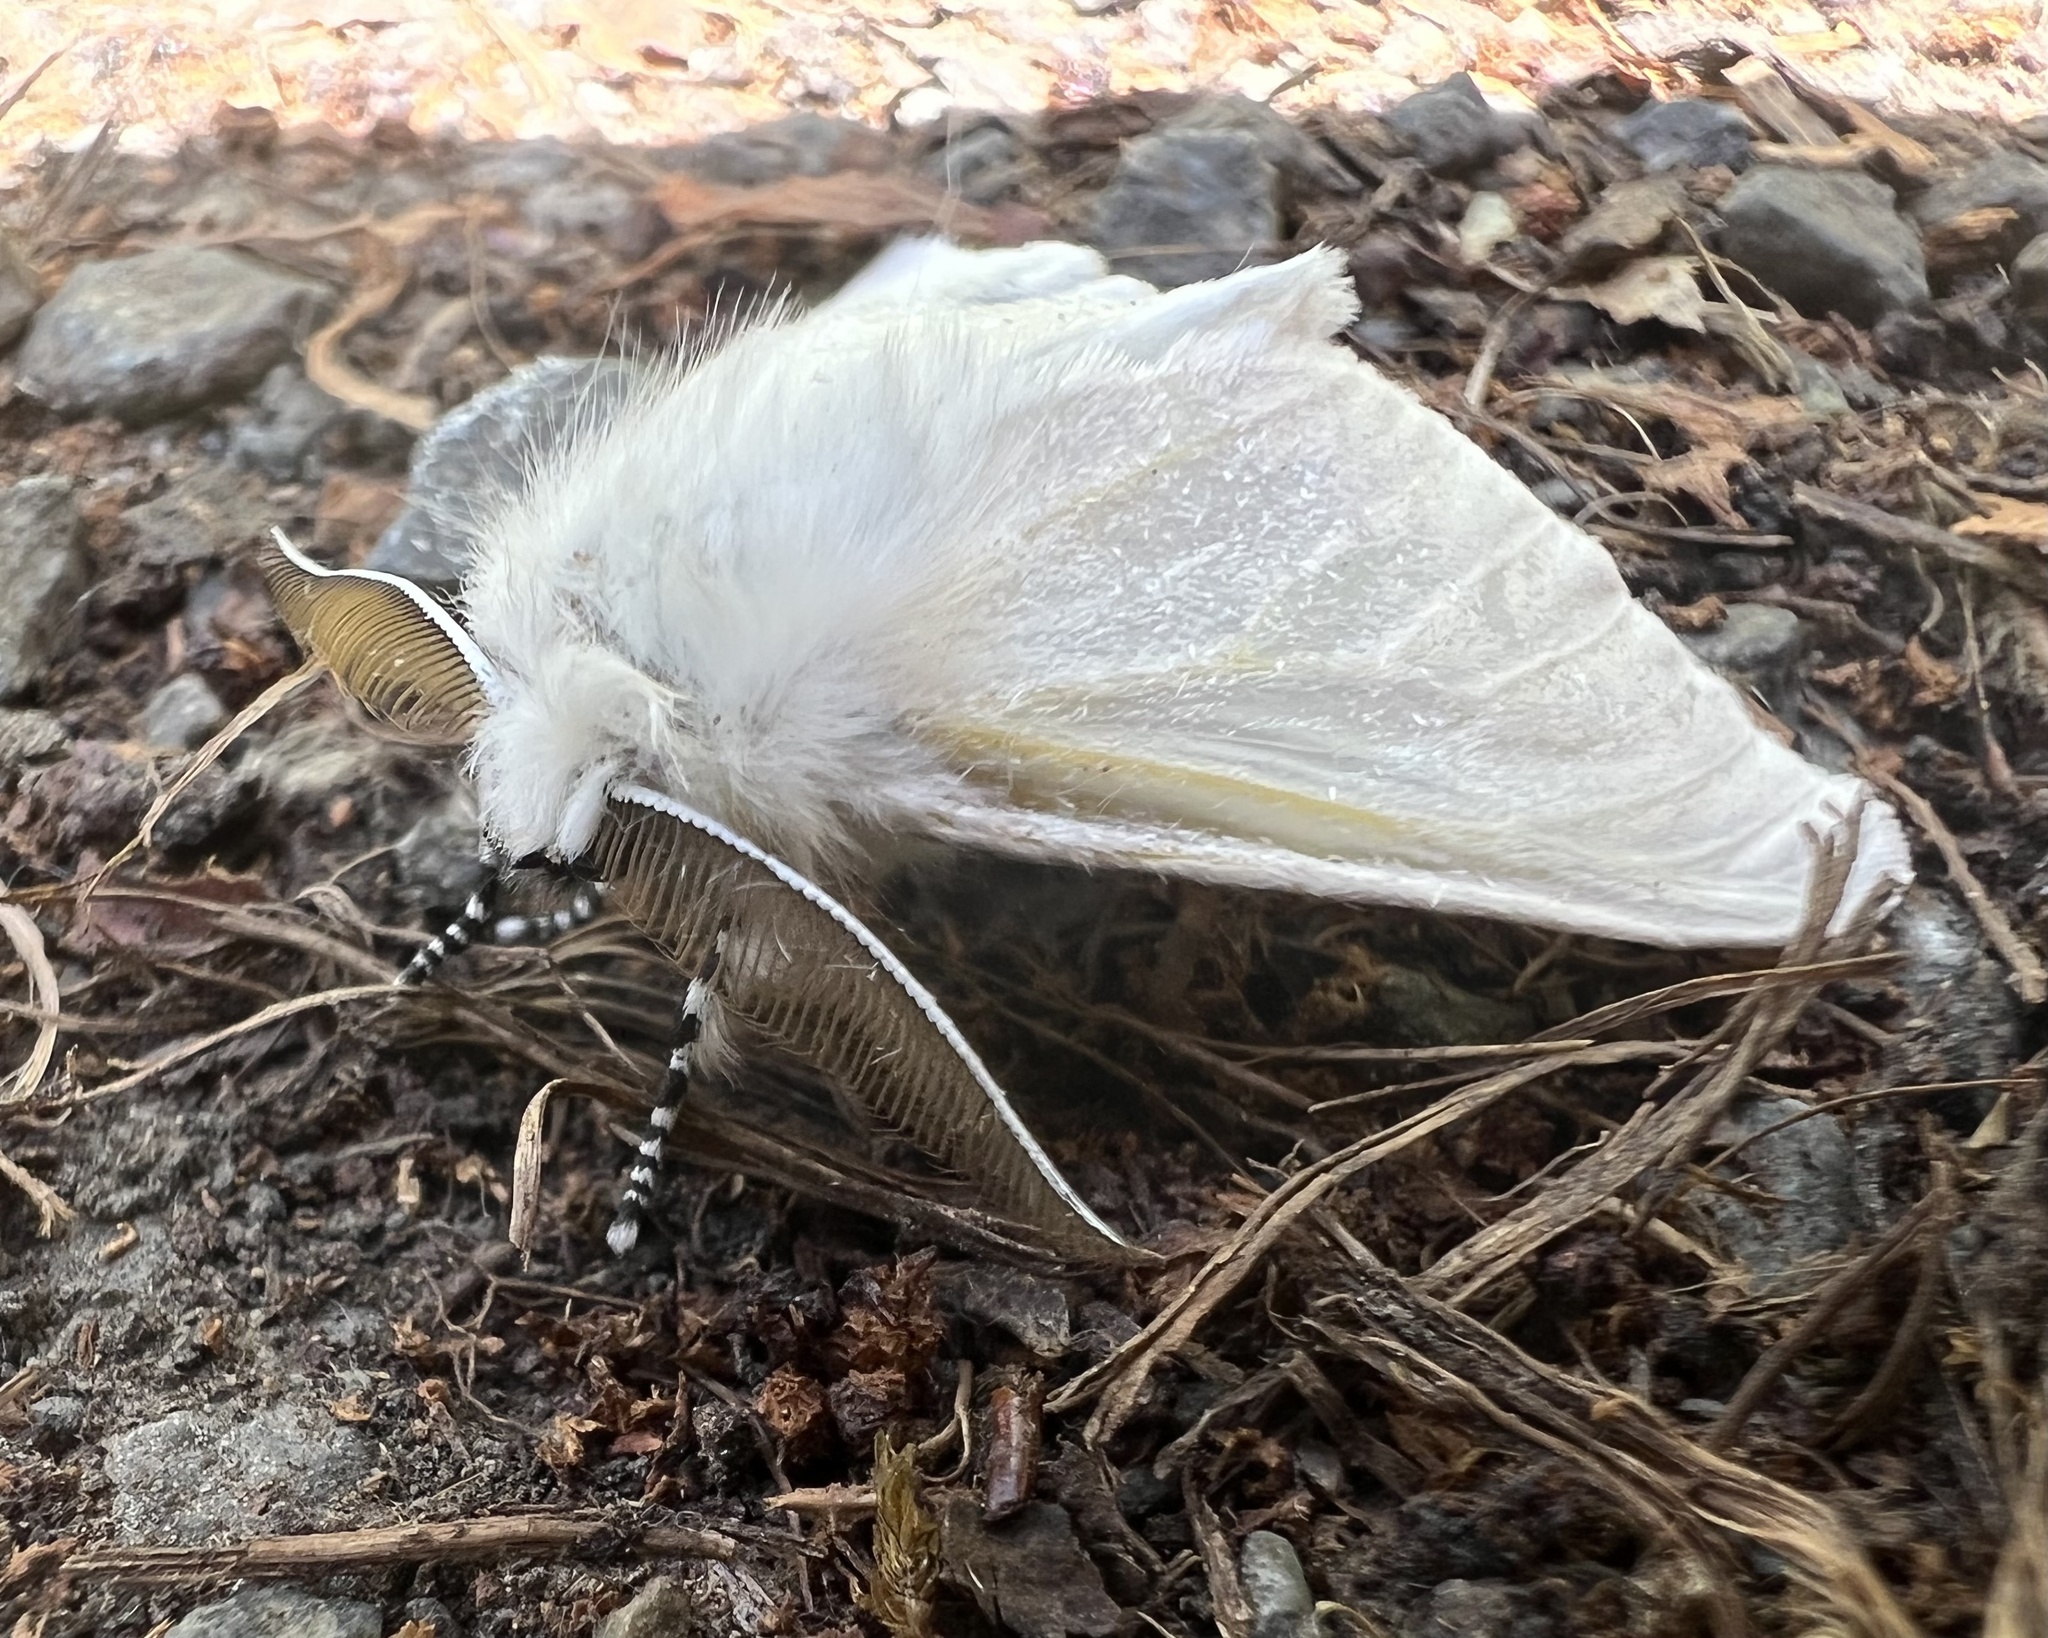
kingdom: Animalia
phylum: Arthropoda
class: Insecta
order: Lepidoptera
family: Erebidae
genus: Leucoma
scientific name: Leucoma salicis
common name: White satin moth
